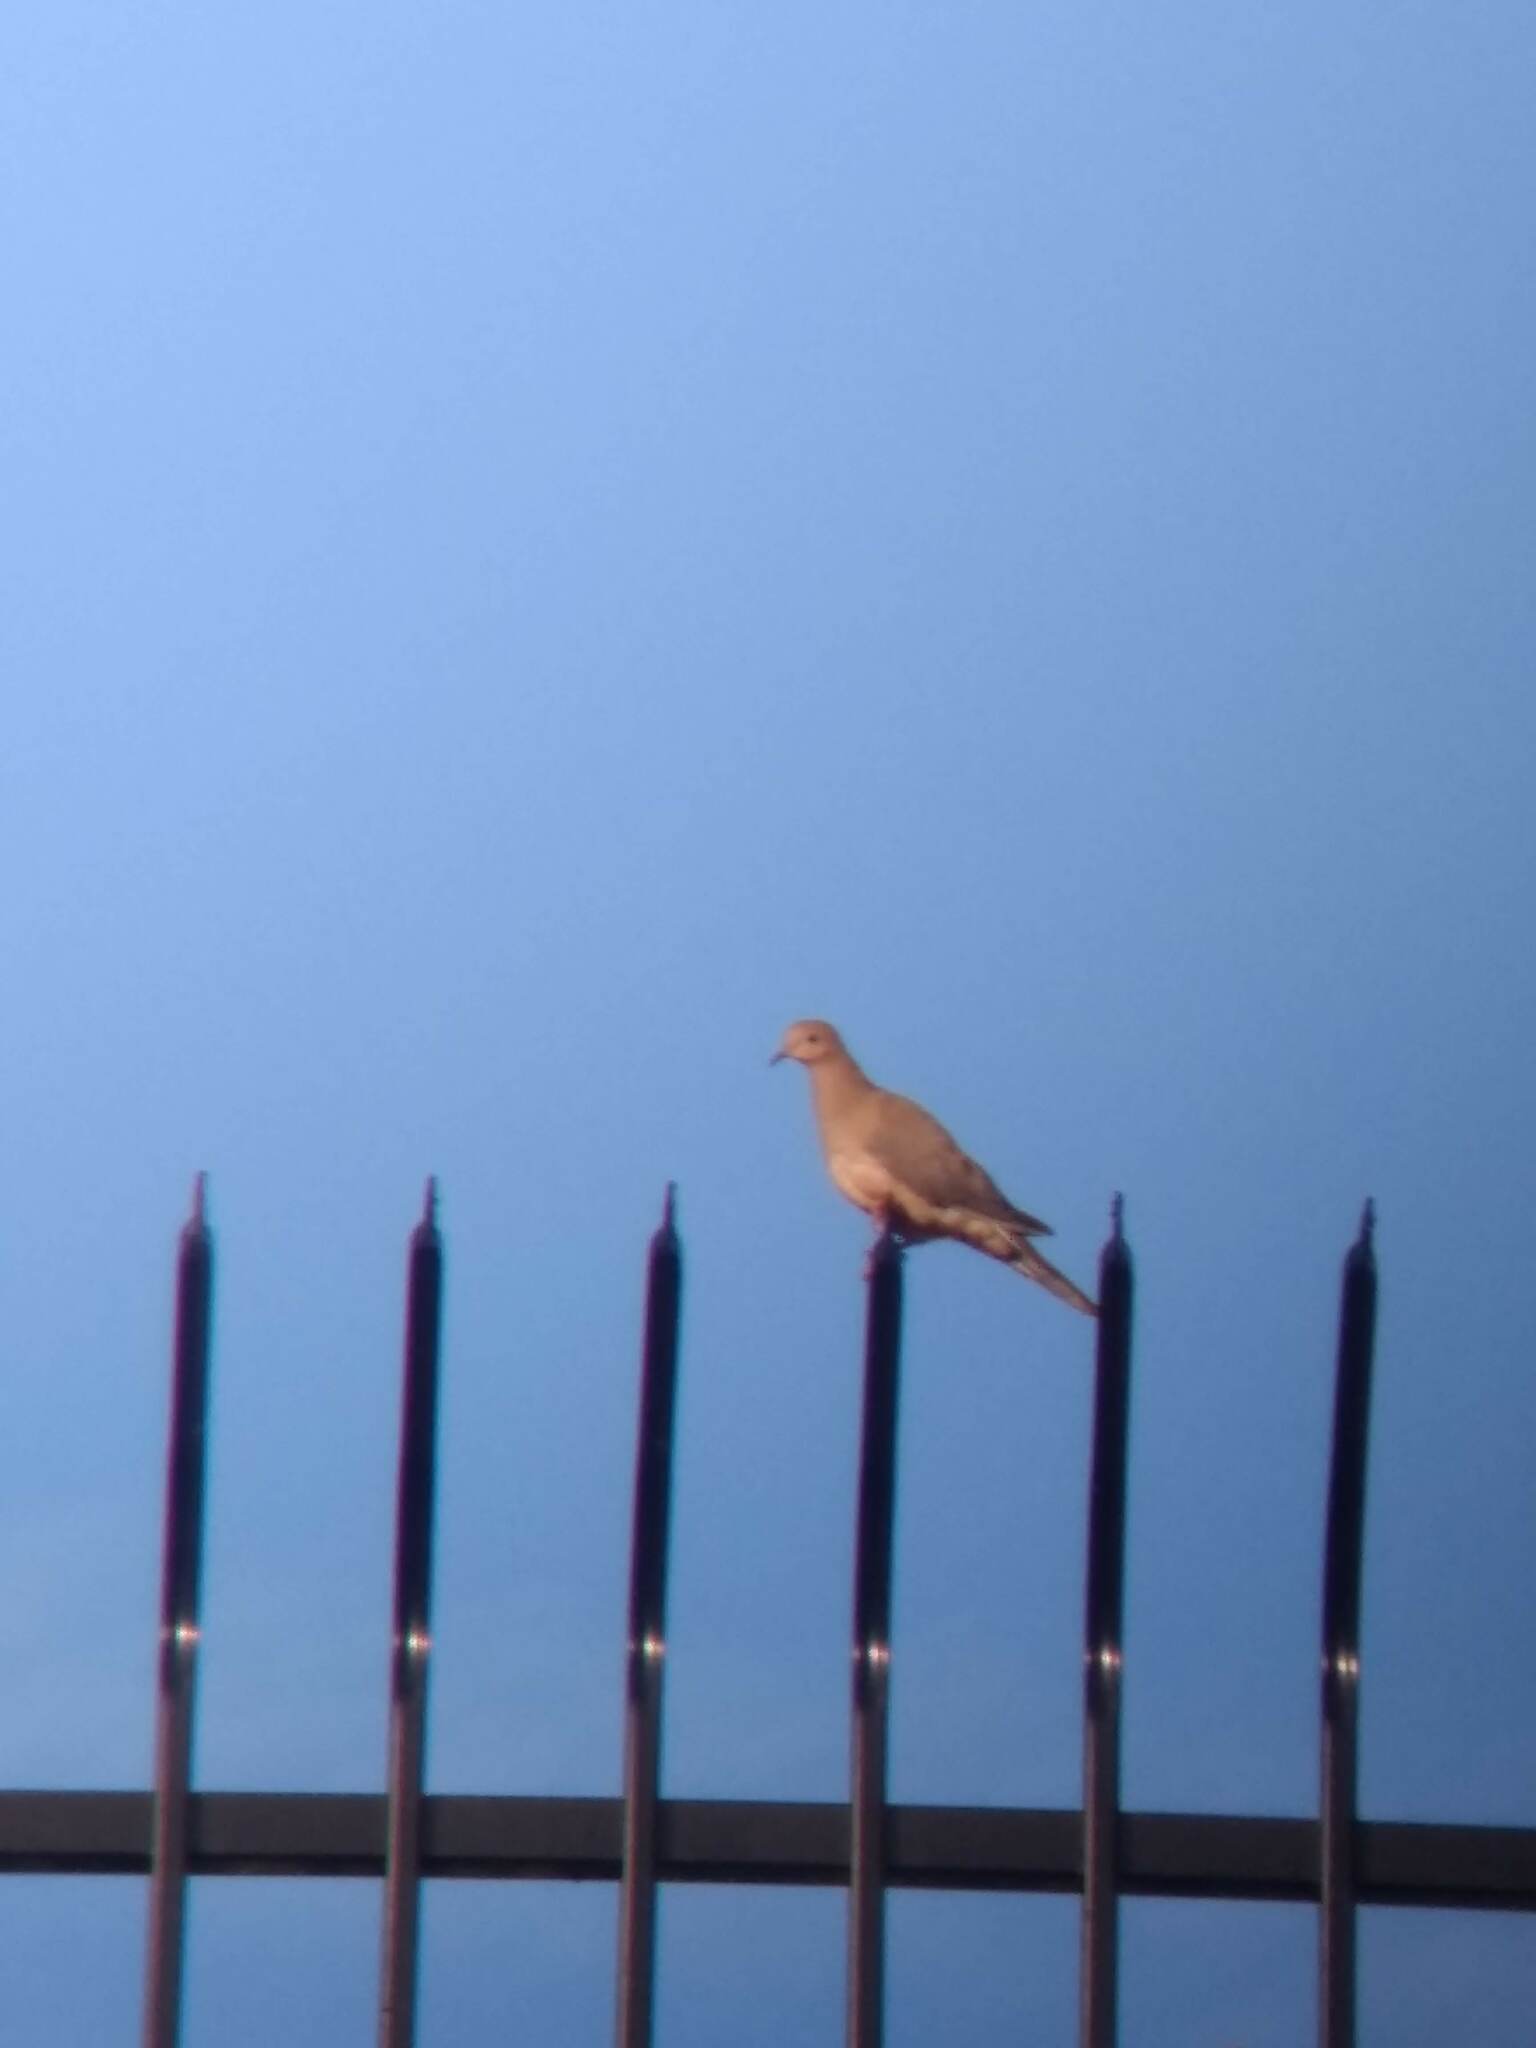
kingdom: Animalia
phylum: Chordata
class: Aves
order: Columbiformes
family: Columbidae
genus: Zenaida
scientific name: Zenaida macroura
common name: Mourning dove
